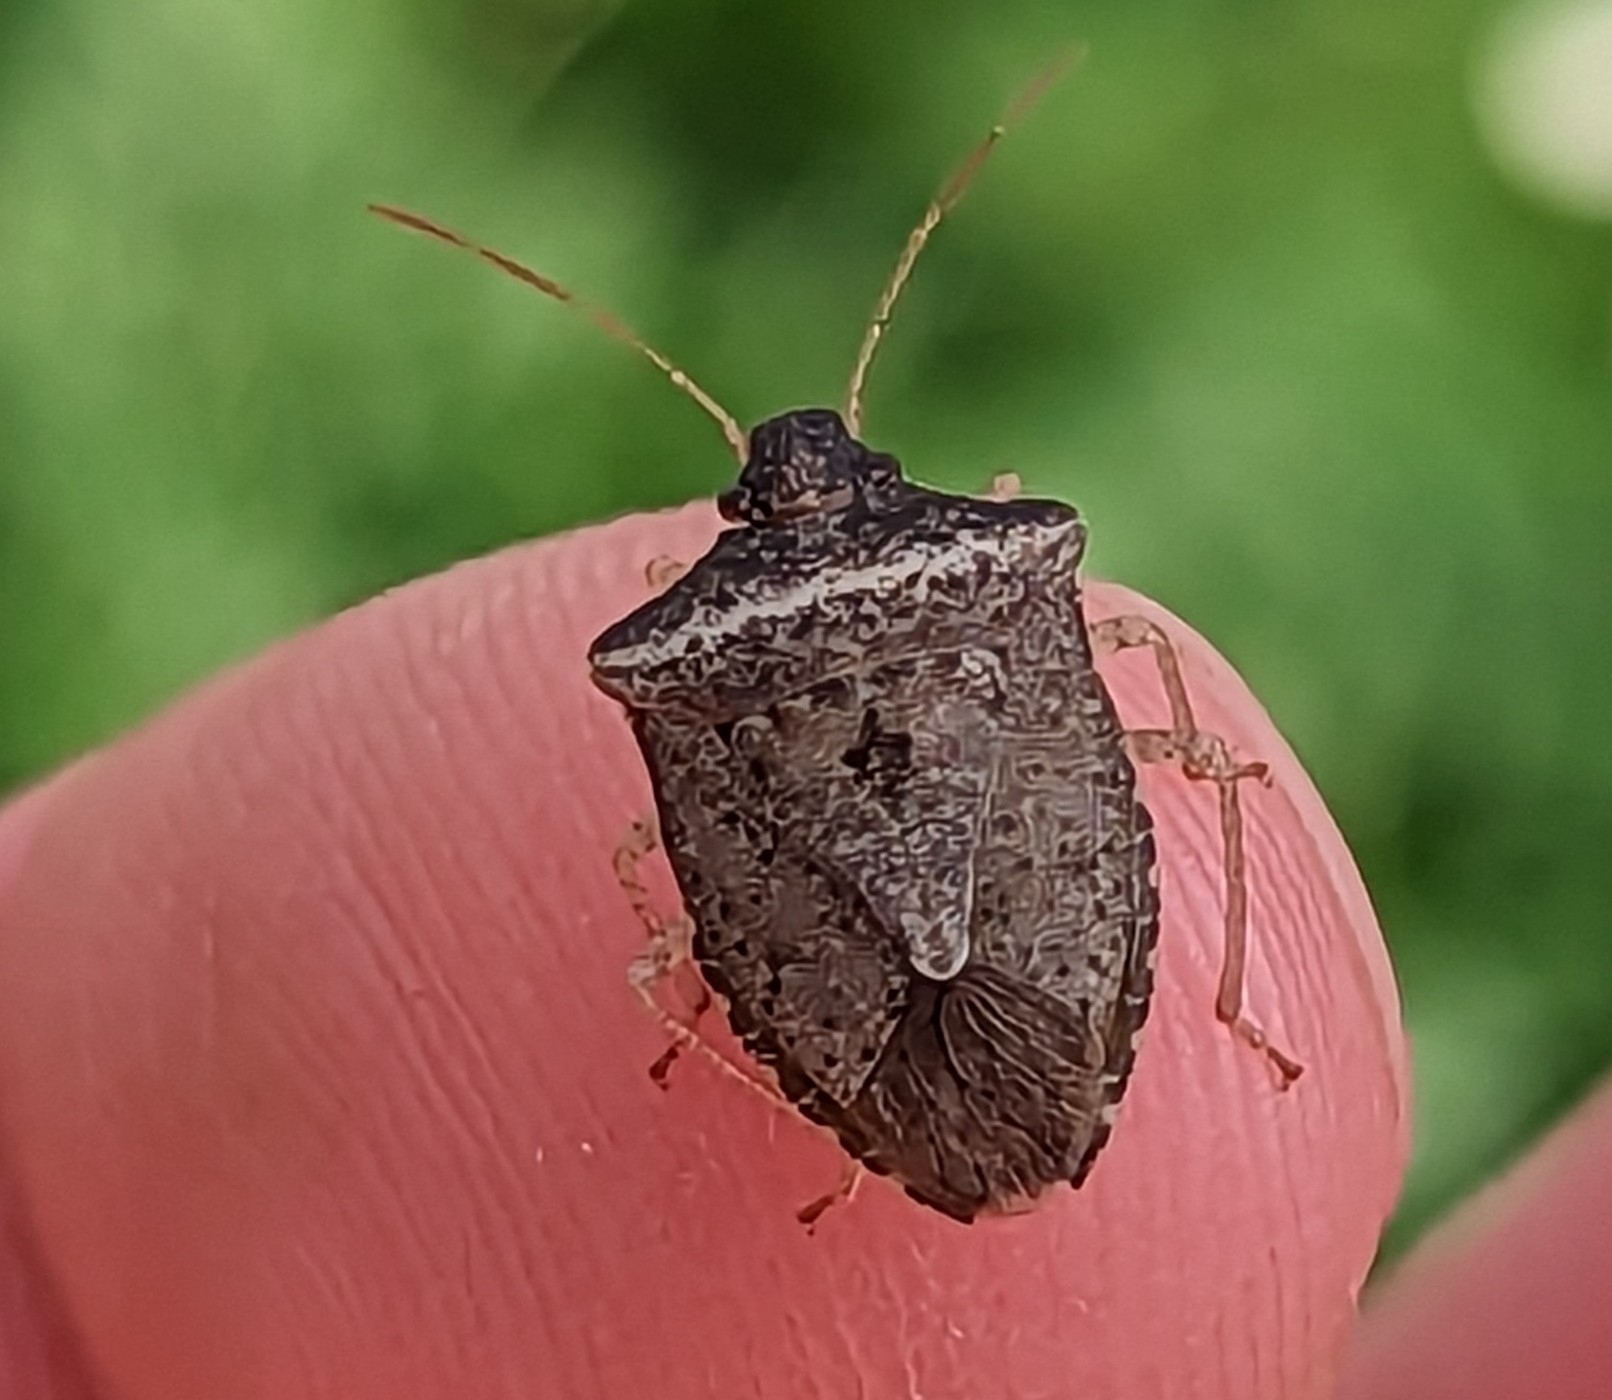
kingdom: Animalia
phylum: Arthropoda
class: Insecta
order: Hemiptera
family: Pentatomidae
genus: Euschistus
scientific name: Euschistus obscurus
